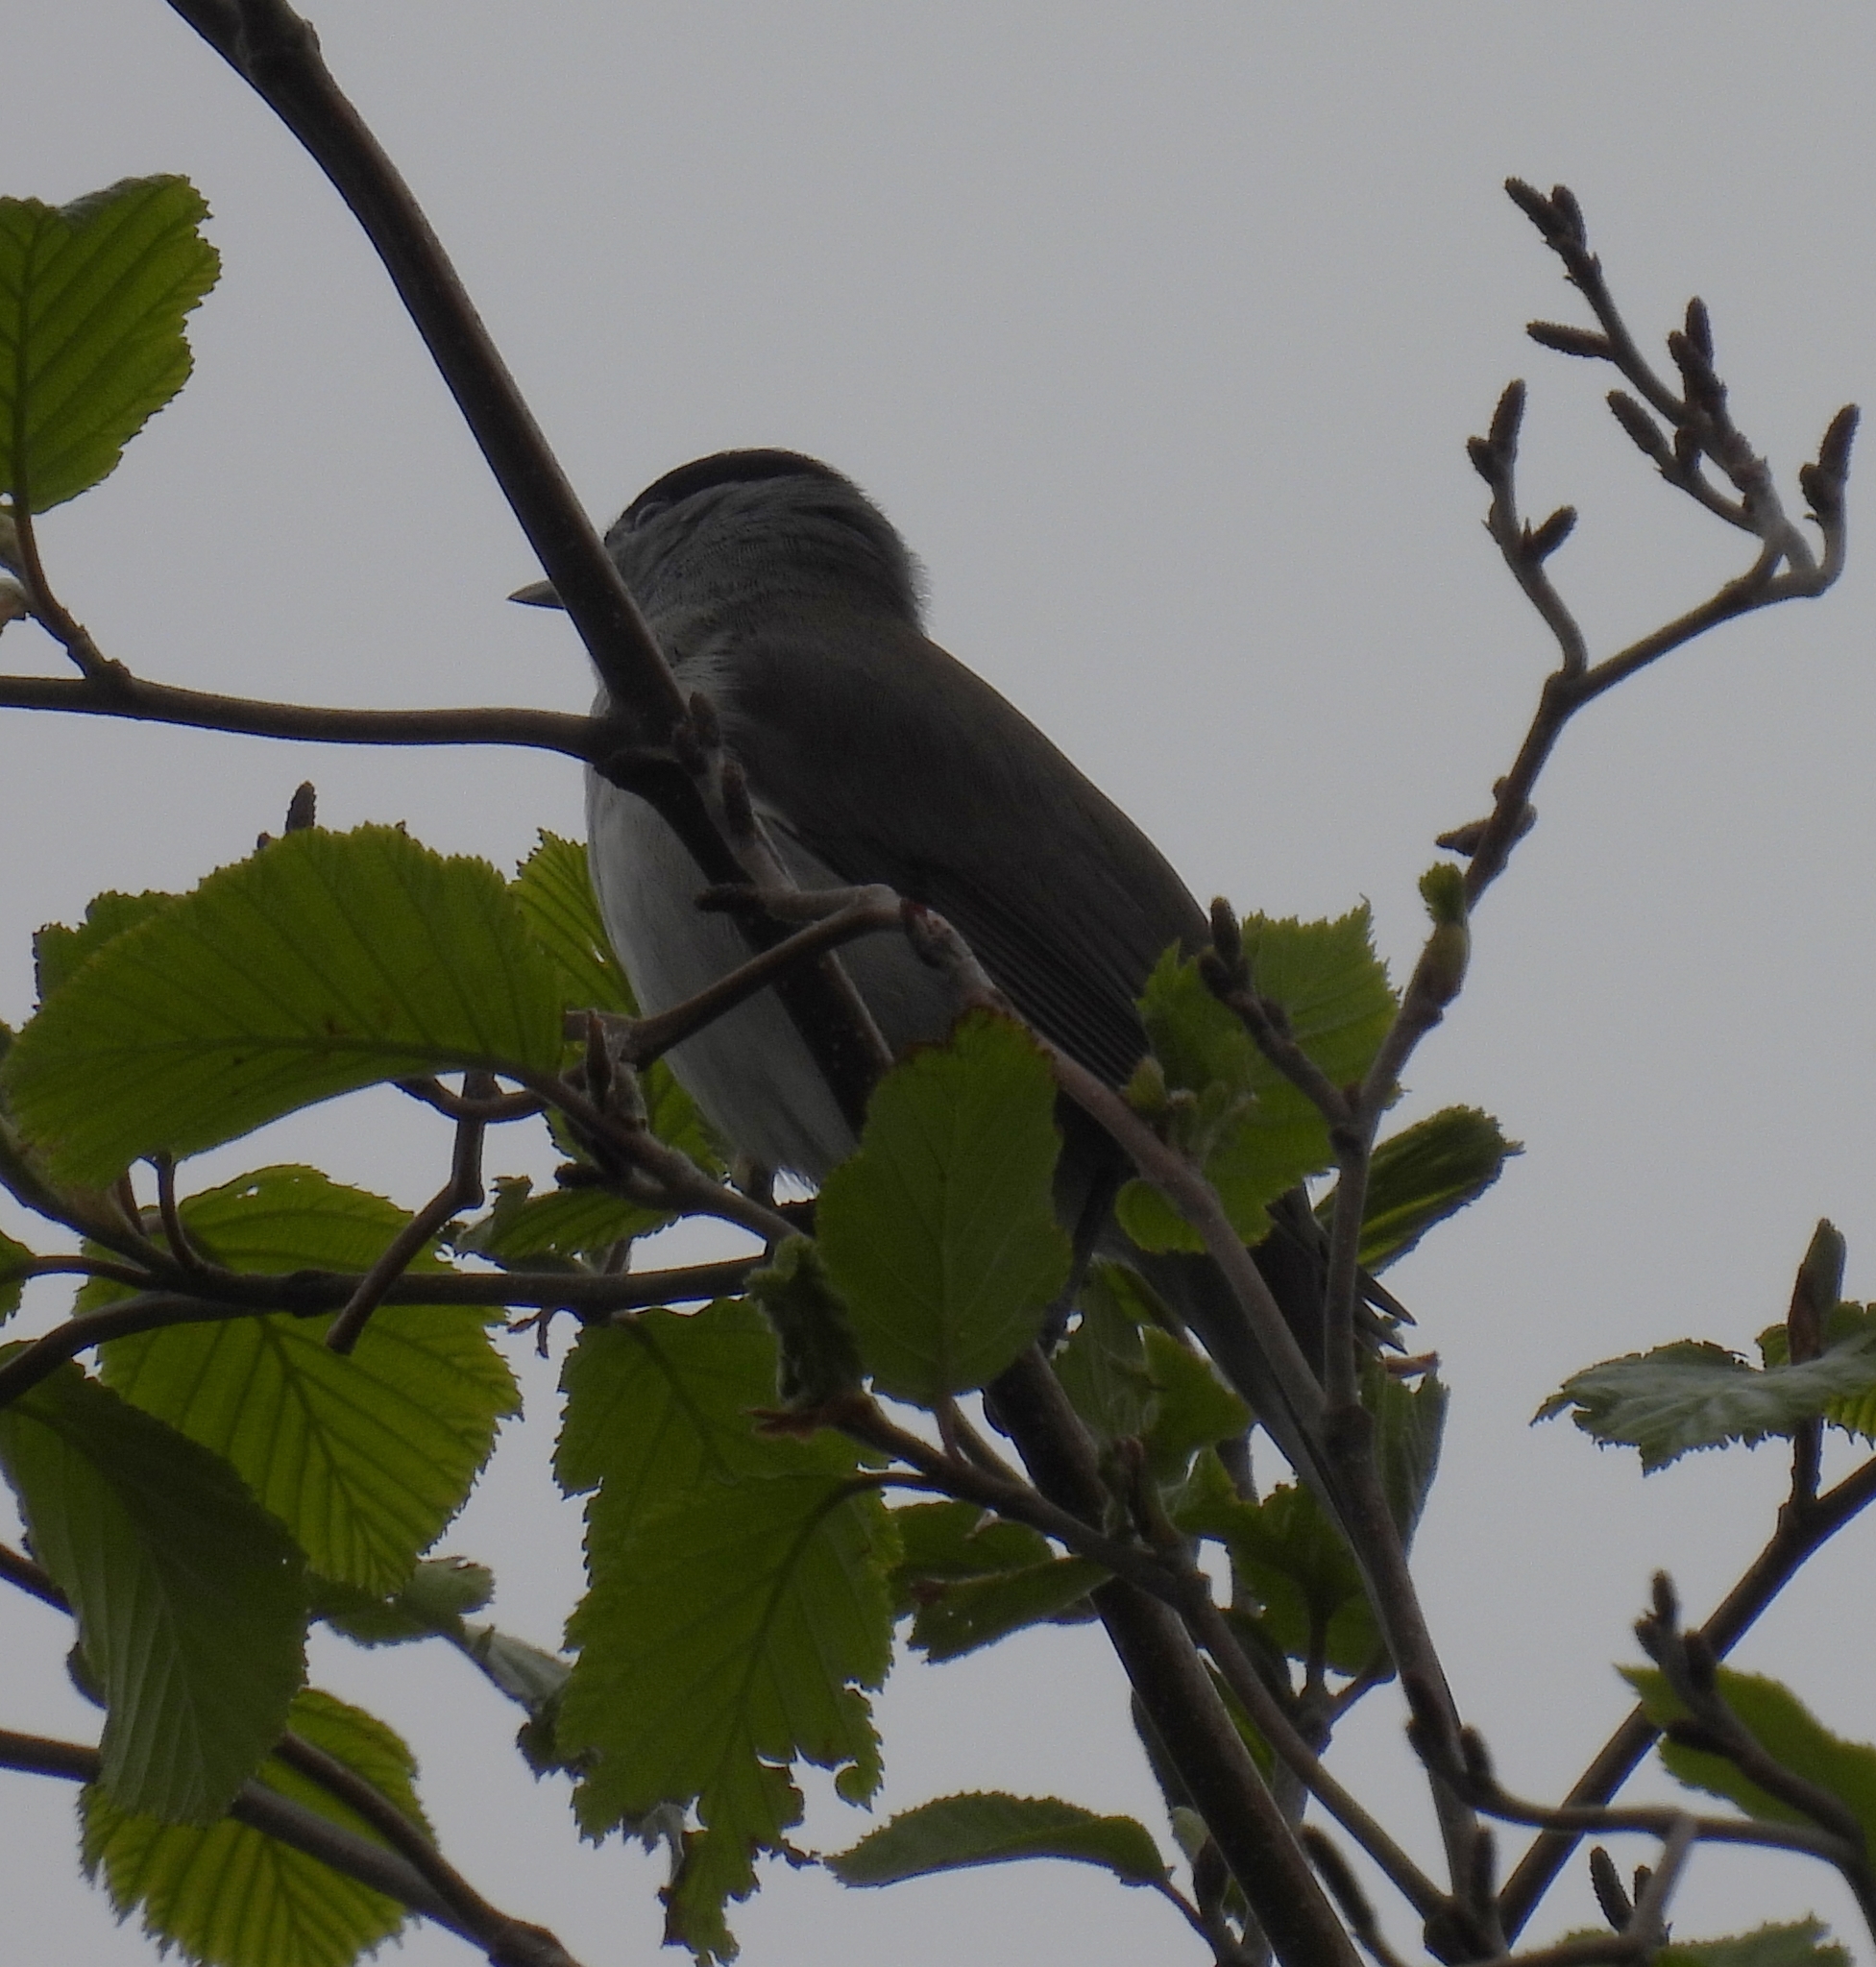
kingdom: Animalia
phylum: Chordata
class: Aves
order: Passeriformes
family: Sylviidae
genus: Sylvia
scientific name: Sylvia atricapilla
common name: Eurasian blackcap
